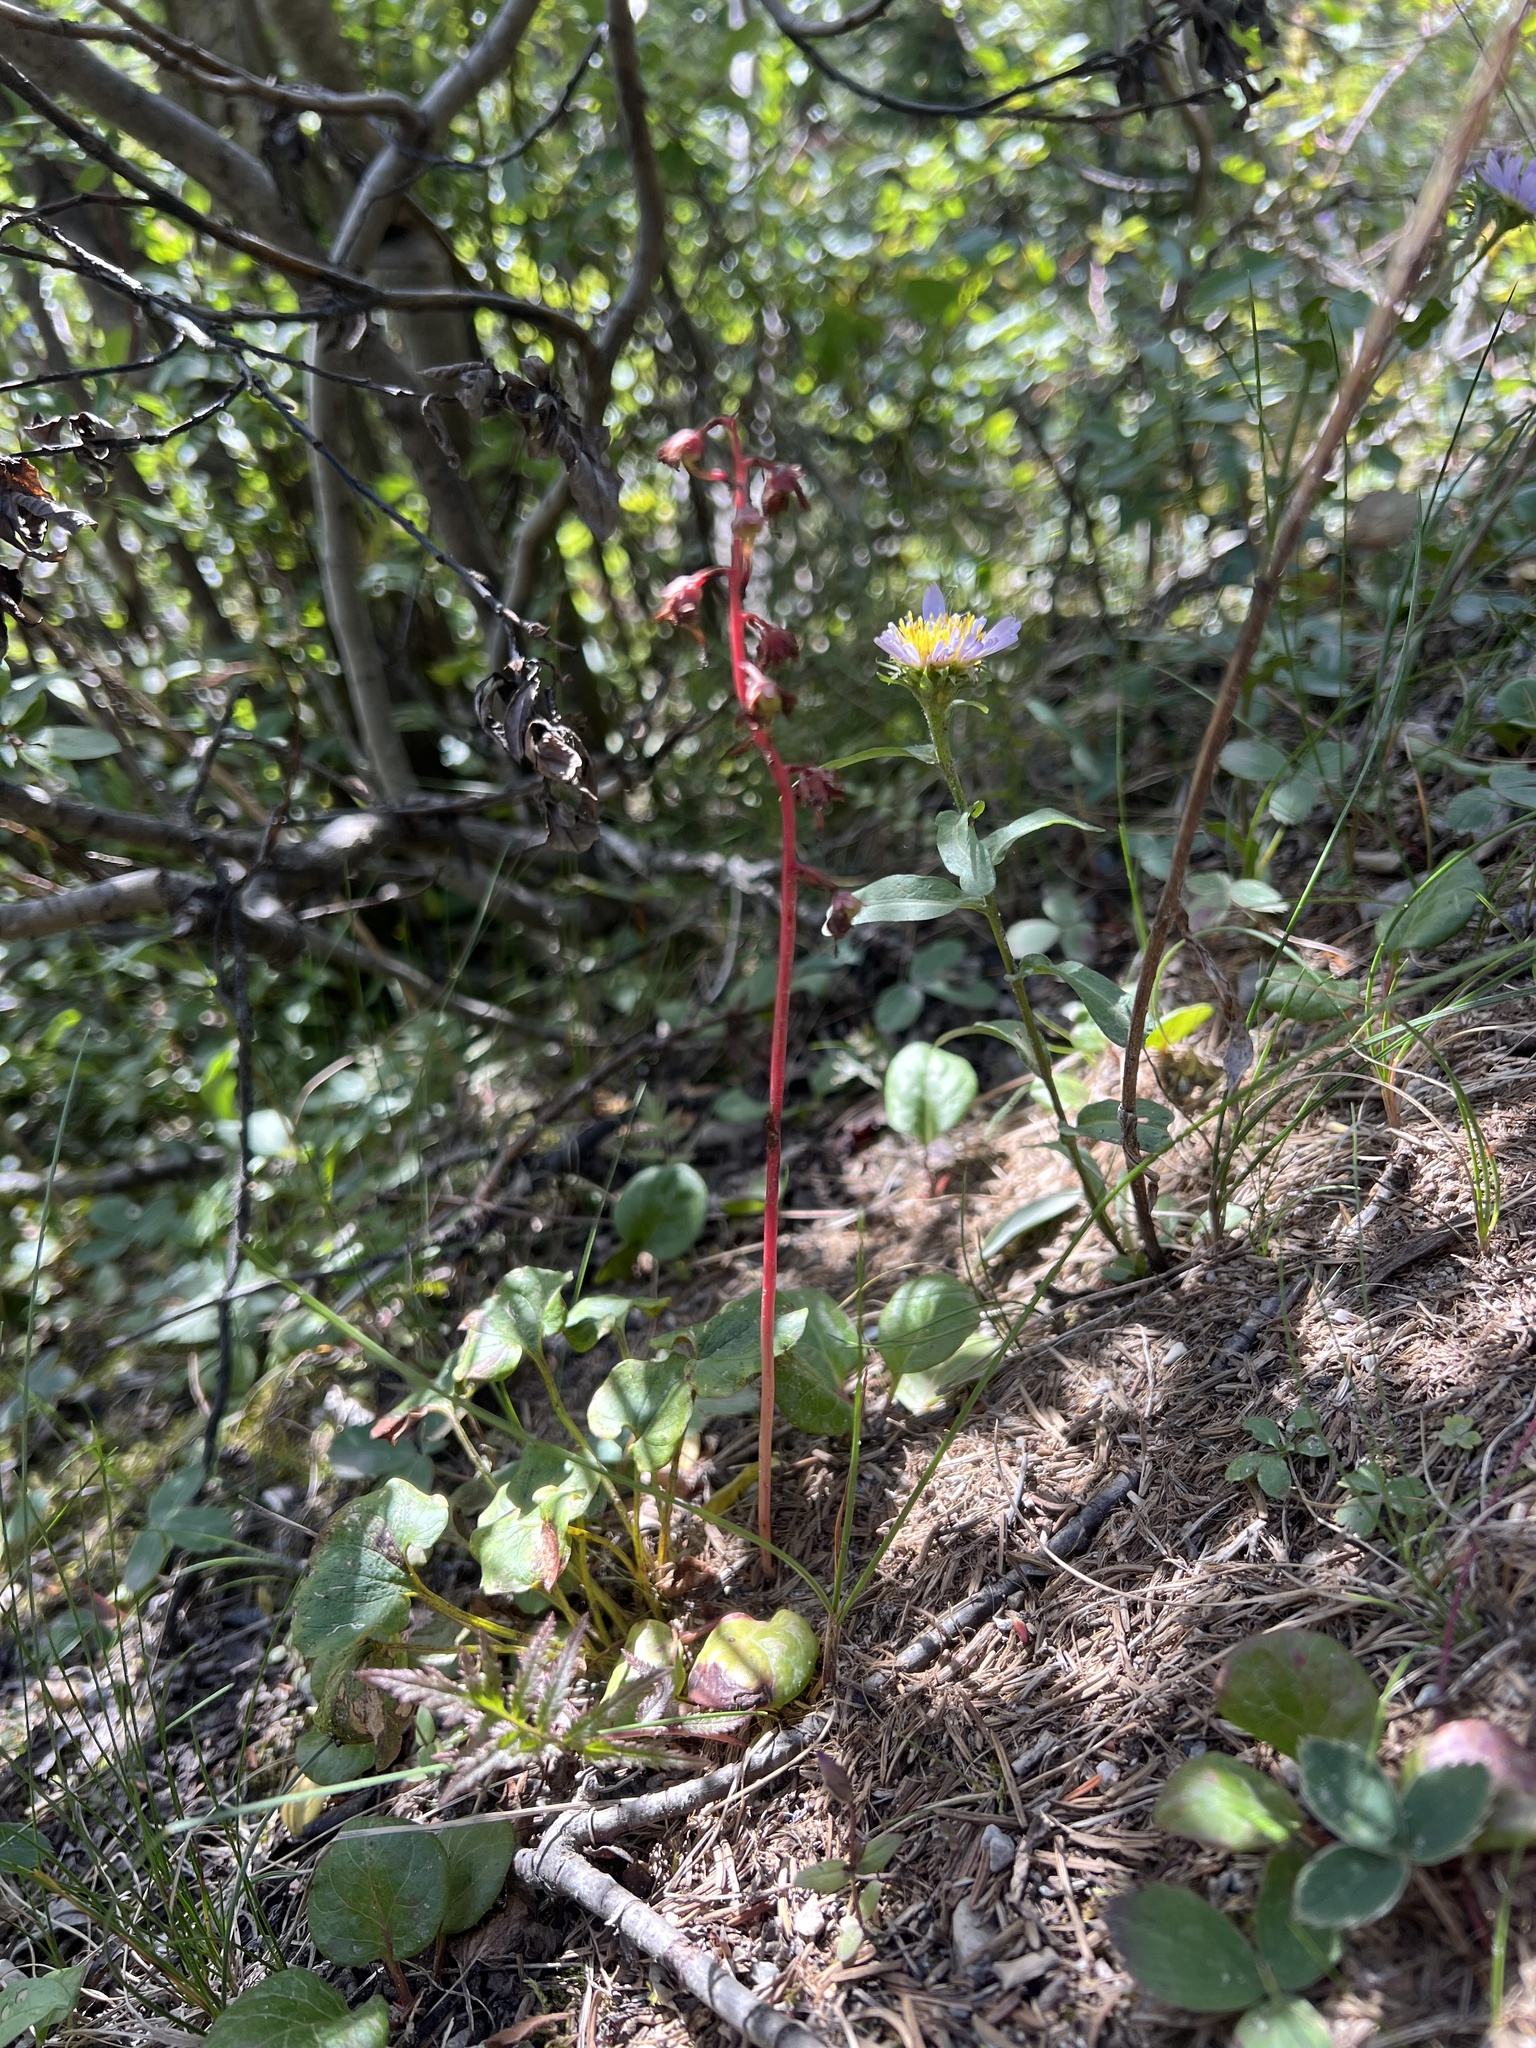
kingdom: Plantae
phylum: Tracheophyta
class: Magnoliopsida
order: Ericales
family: Ericaceae
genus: Pyrola
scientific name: Pyrola asarifolia
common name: Bog wintergreen
